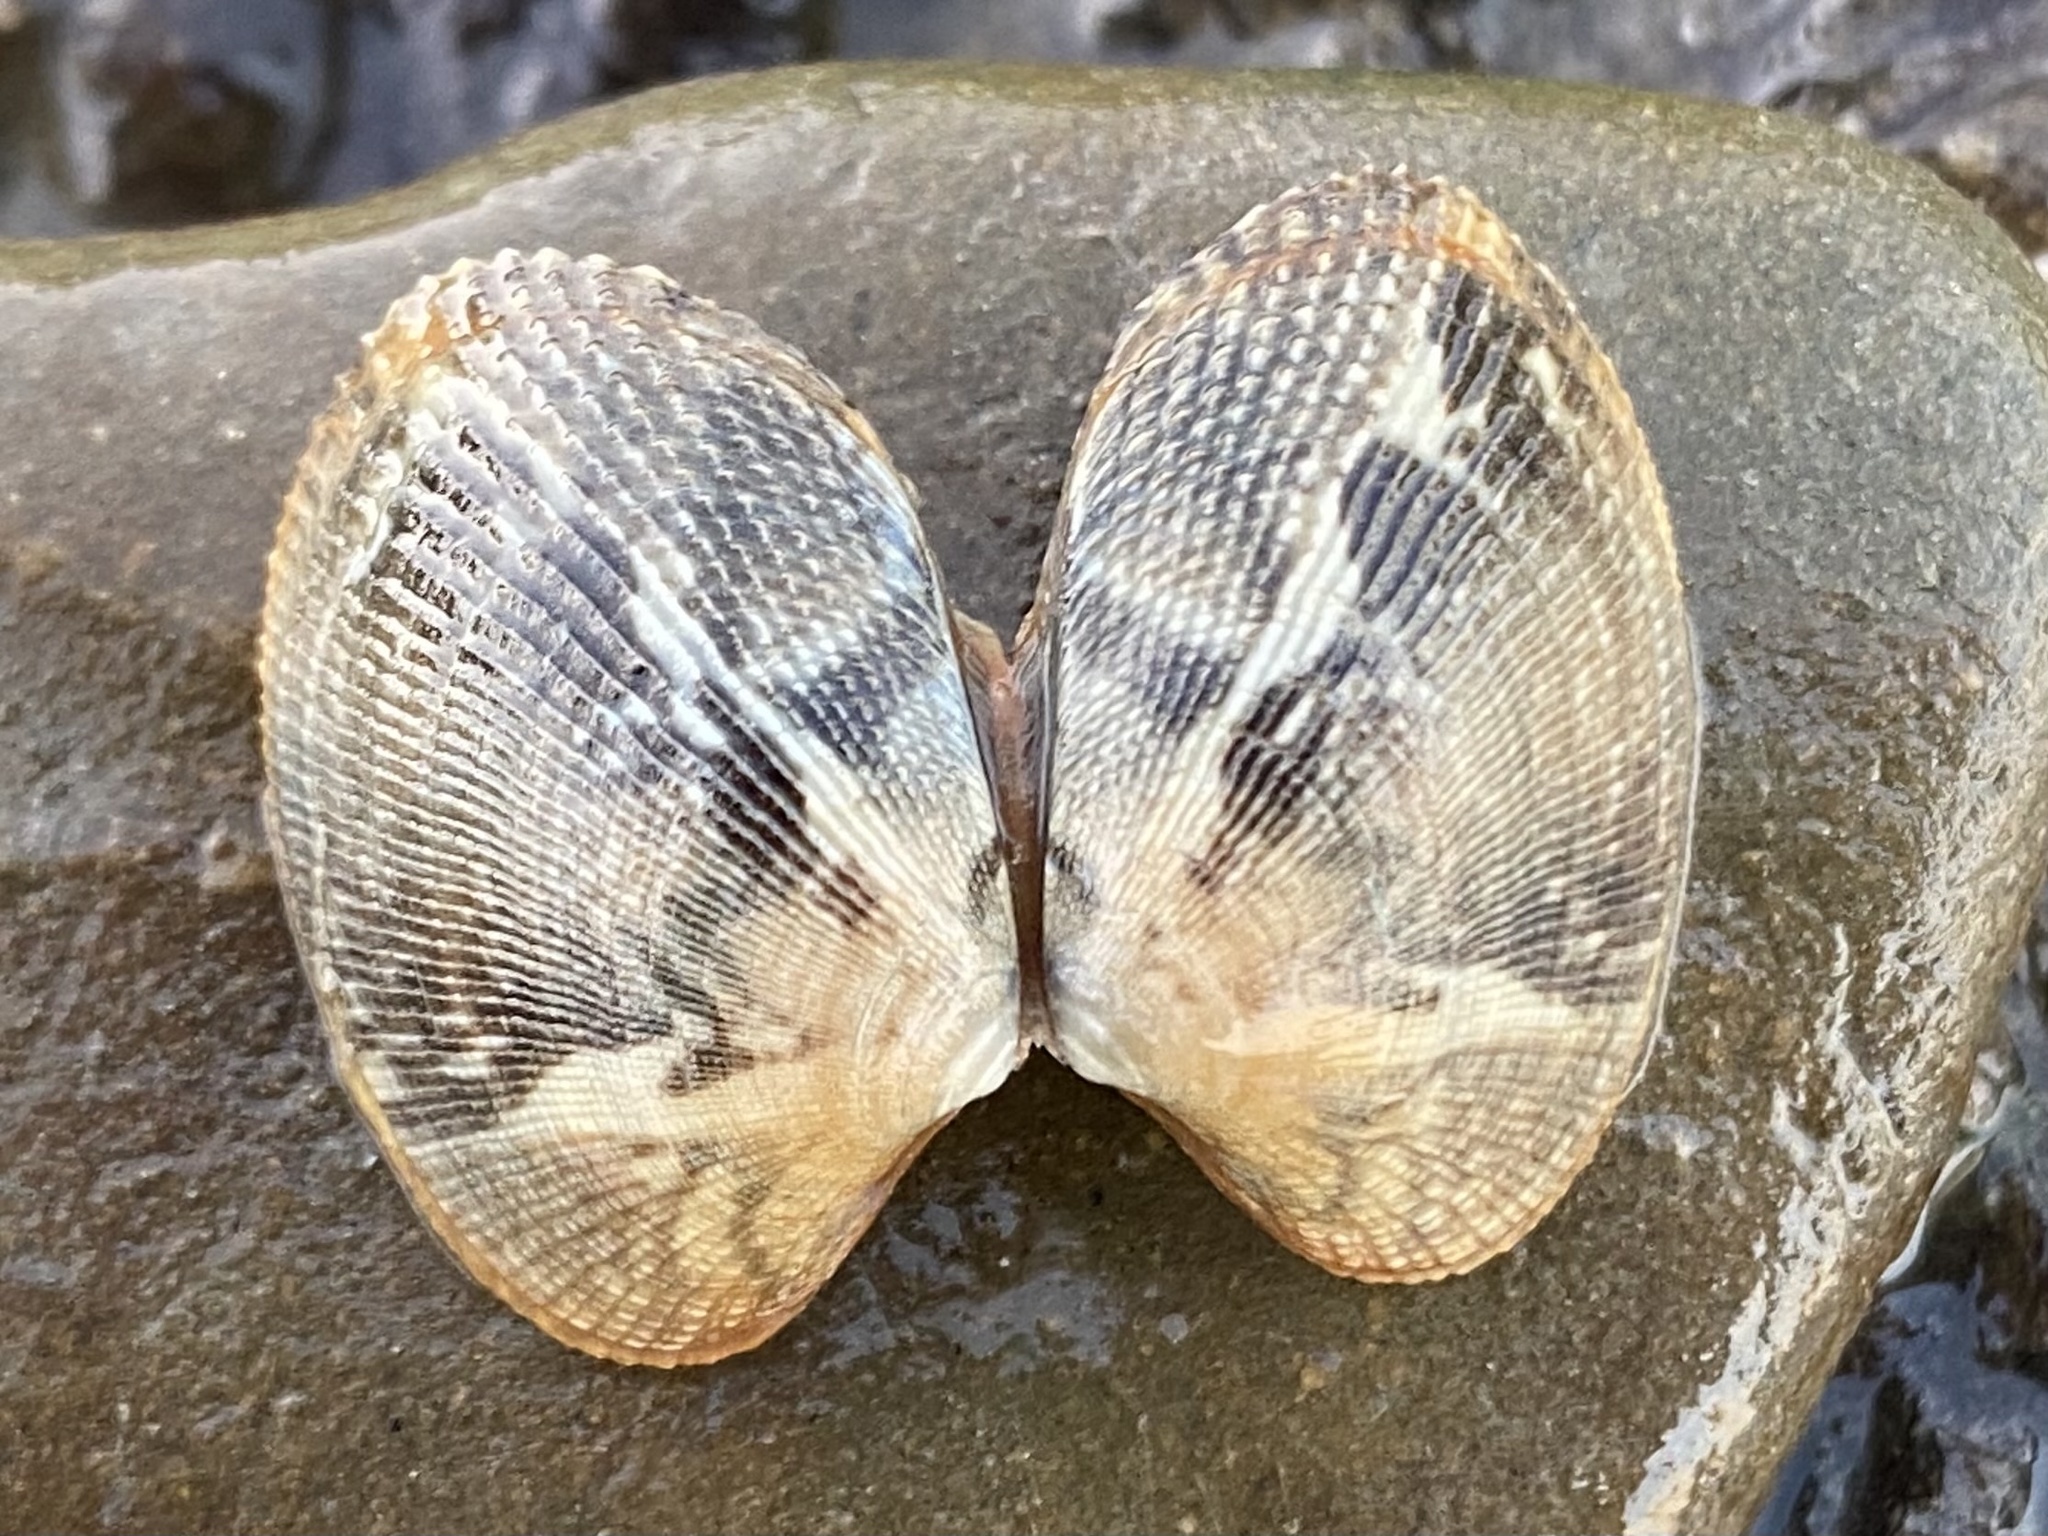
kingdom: Animalia
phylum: Mollusca
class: Bivalvia
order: Venerida
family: Veneridae
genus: Ruditapes
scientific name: Ruditapes philippinarum
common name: Manila clam
